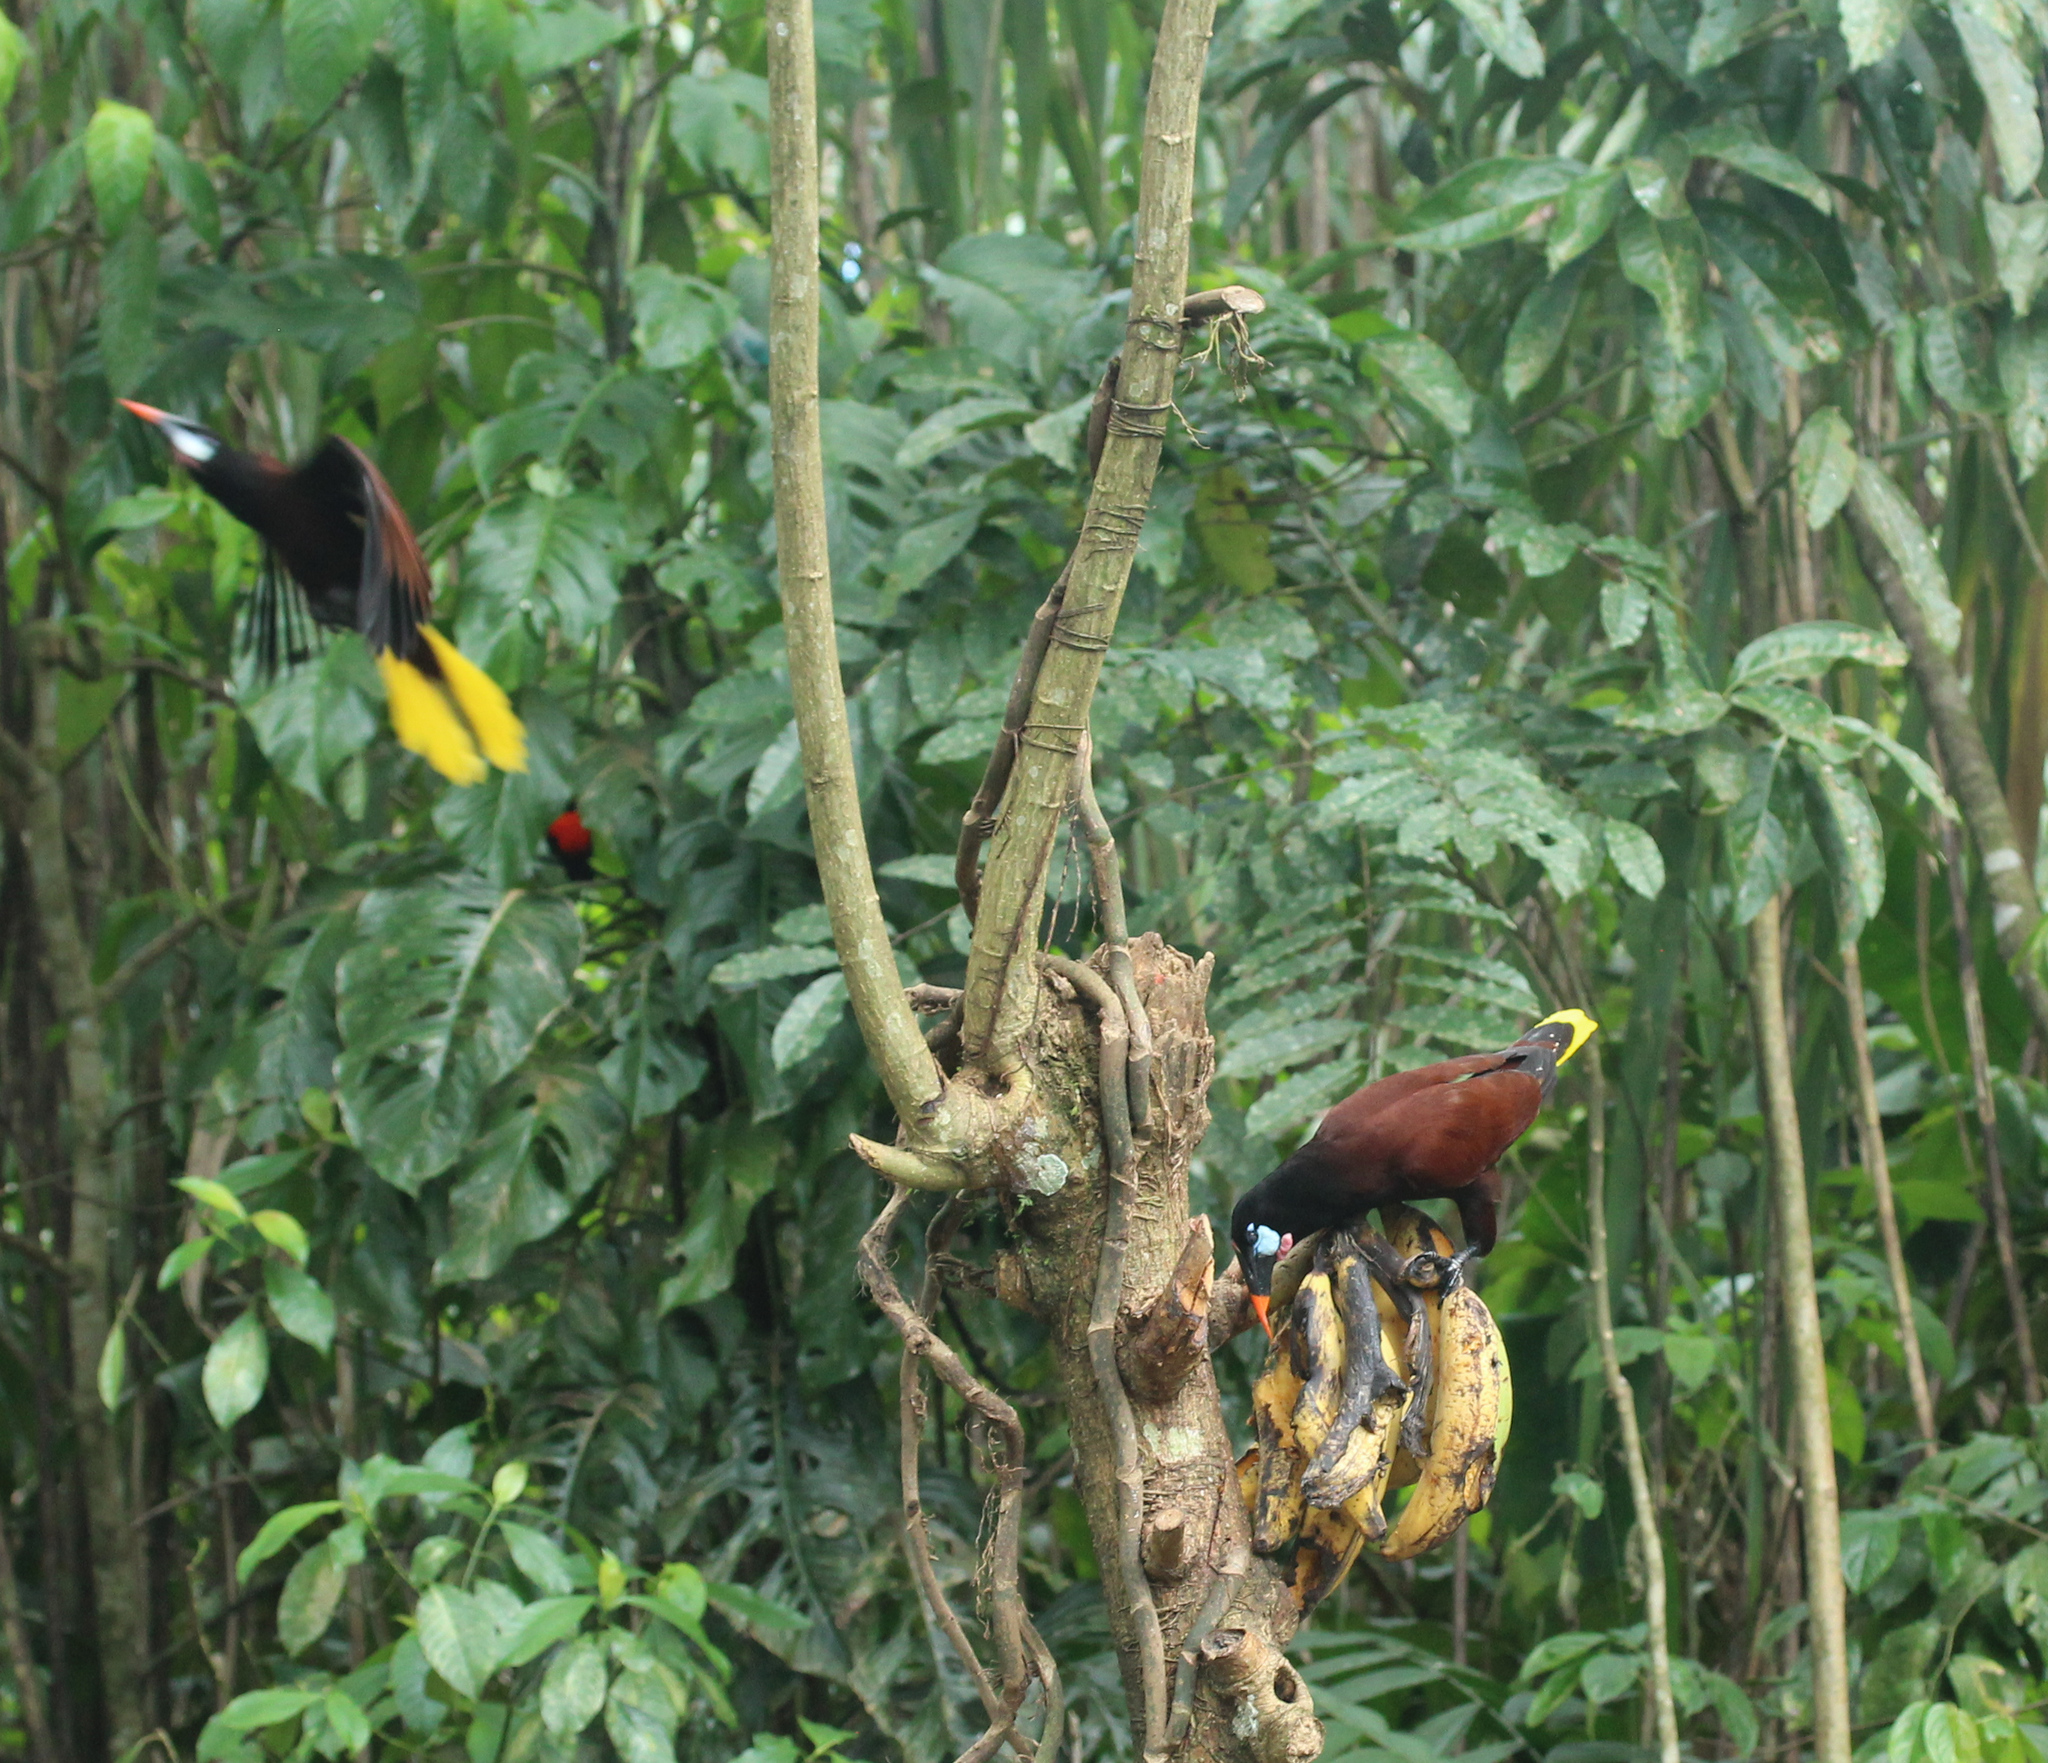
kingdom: Animalia
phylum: Chordata
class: Aves
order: Passeriformes
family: Icteridae
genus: Psarocolius
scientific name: Psarocolius montezuma
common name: Montezuma oropendola
